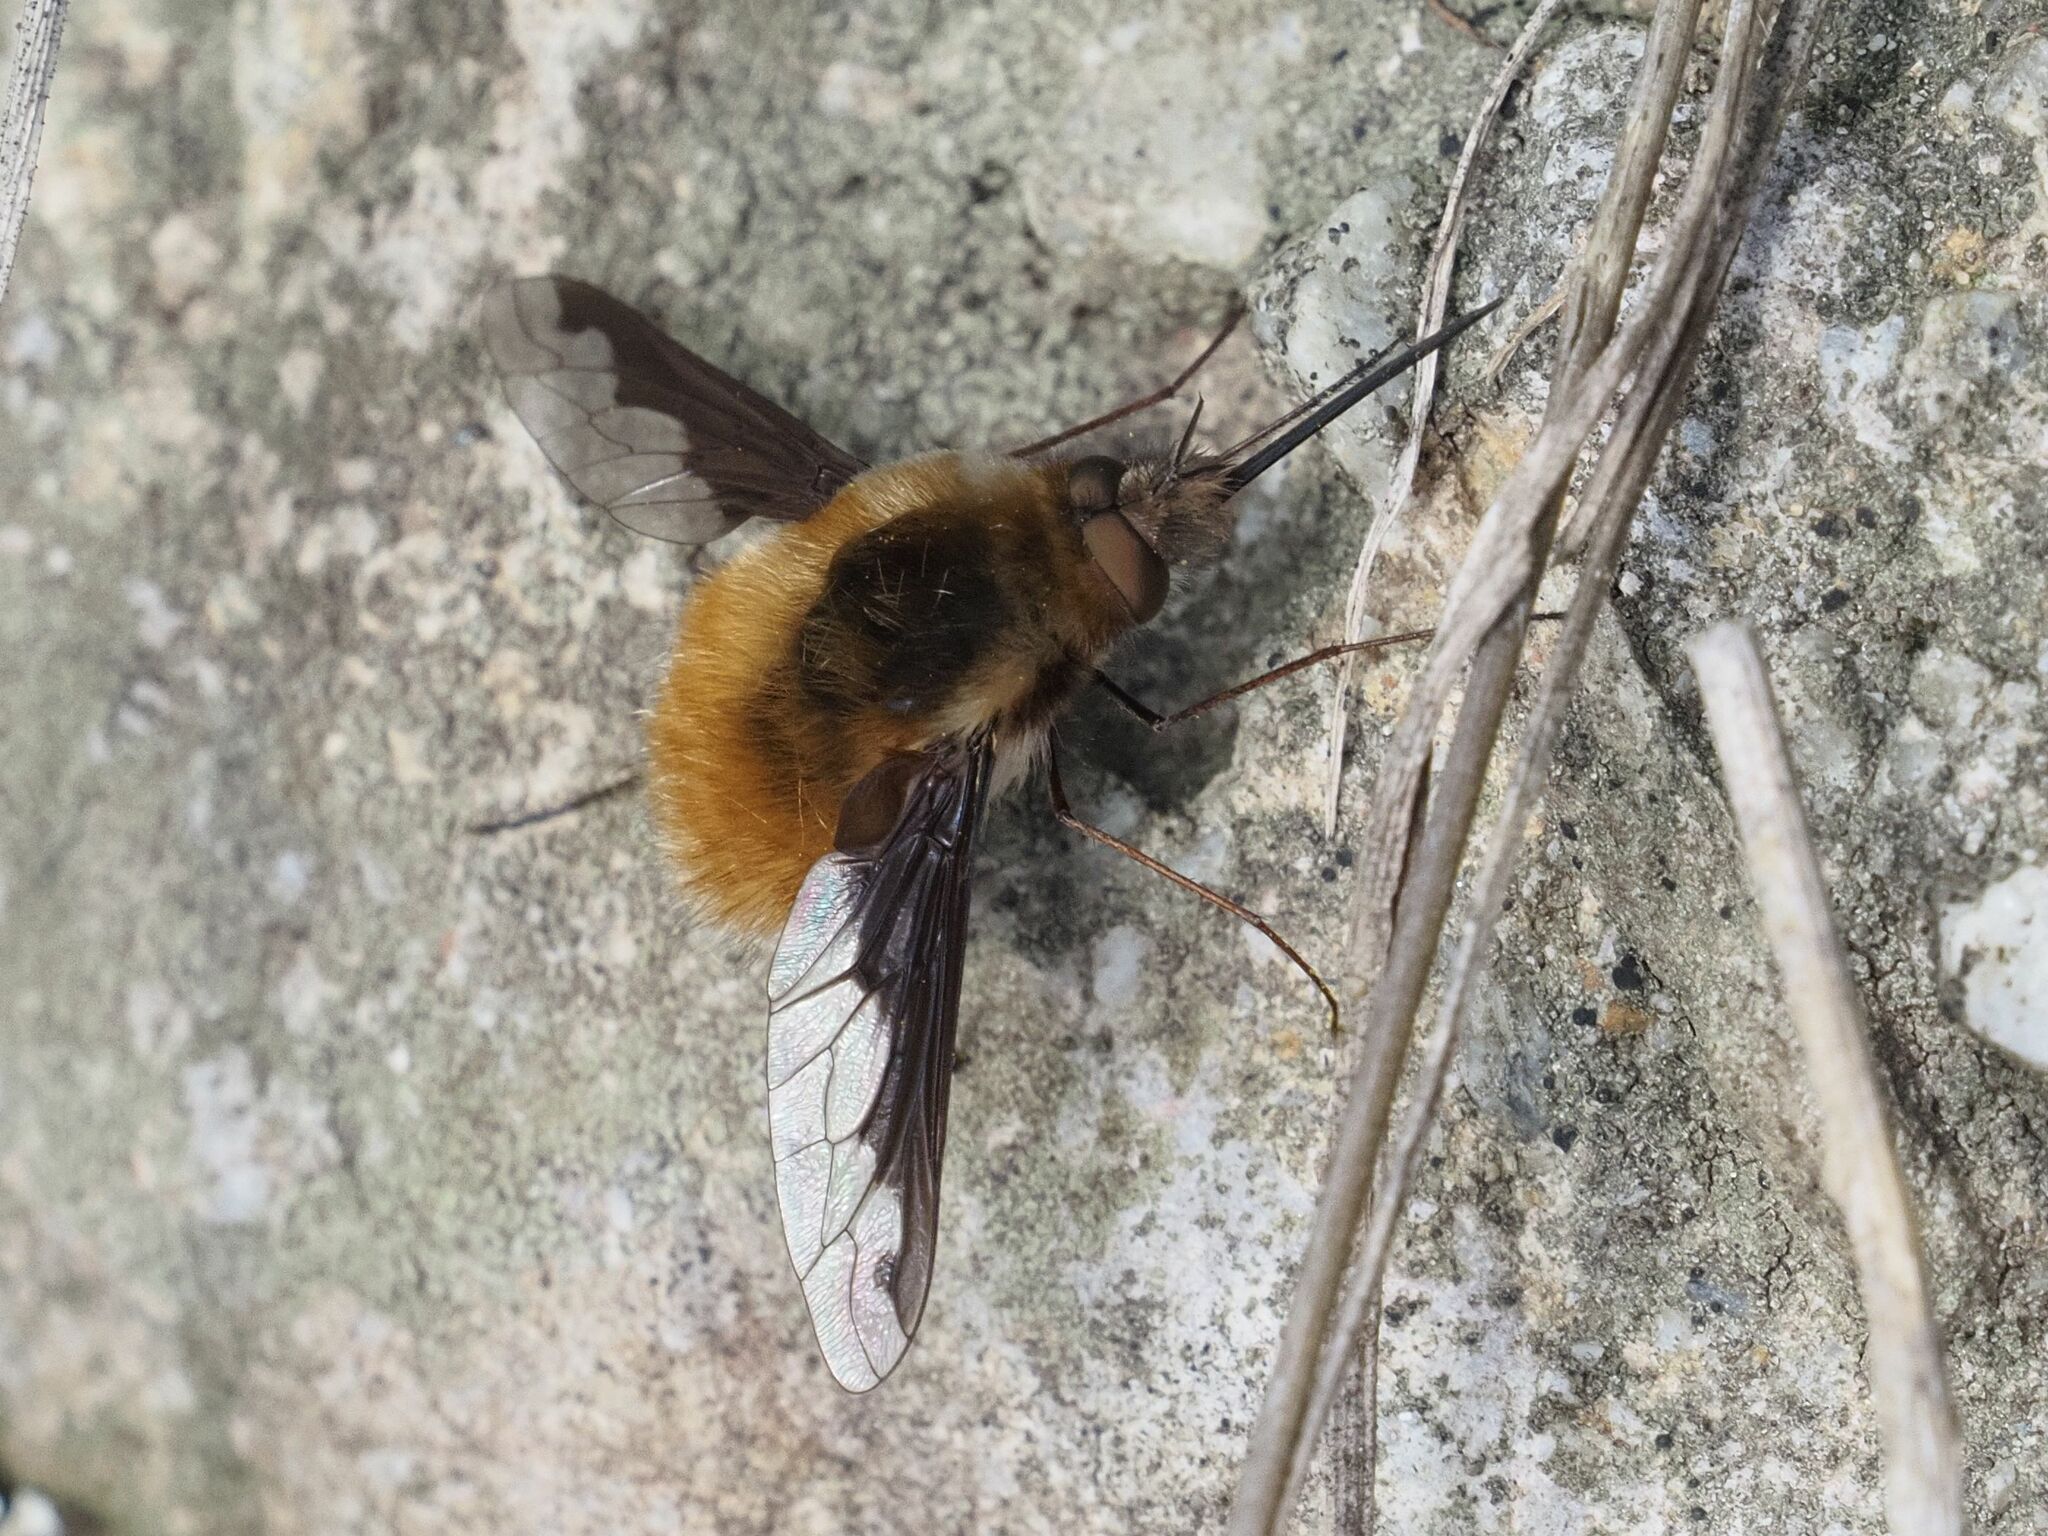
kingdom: Animalia
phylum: Arthropoda
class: Insecta
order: Diptera
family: Bombyliidae
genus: Bombylius
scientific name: Bombylius major
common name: Bee fly
